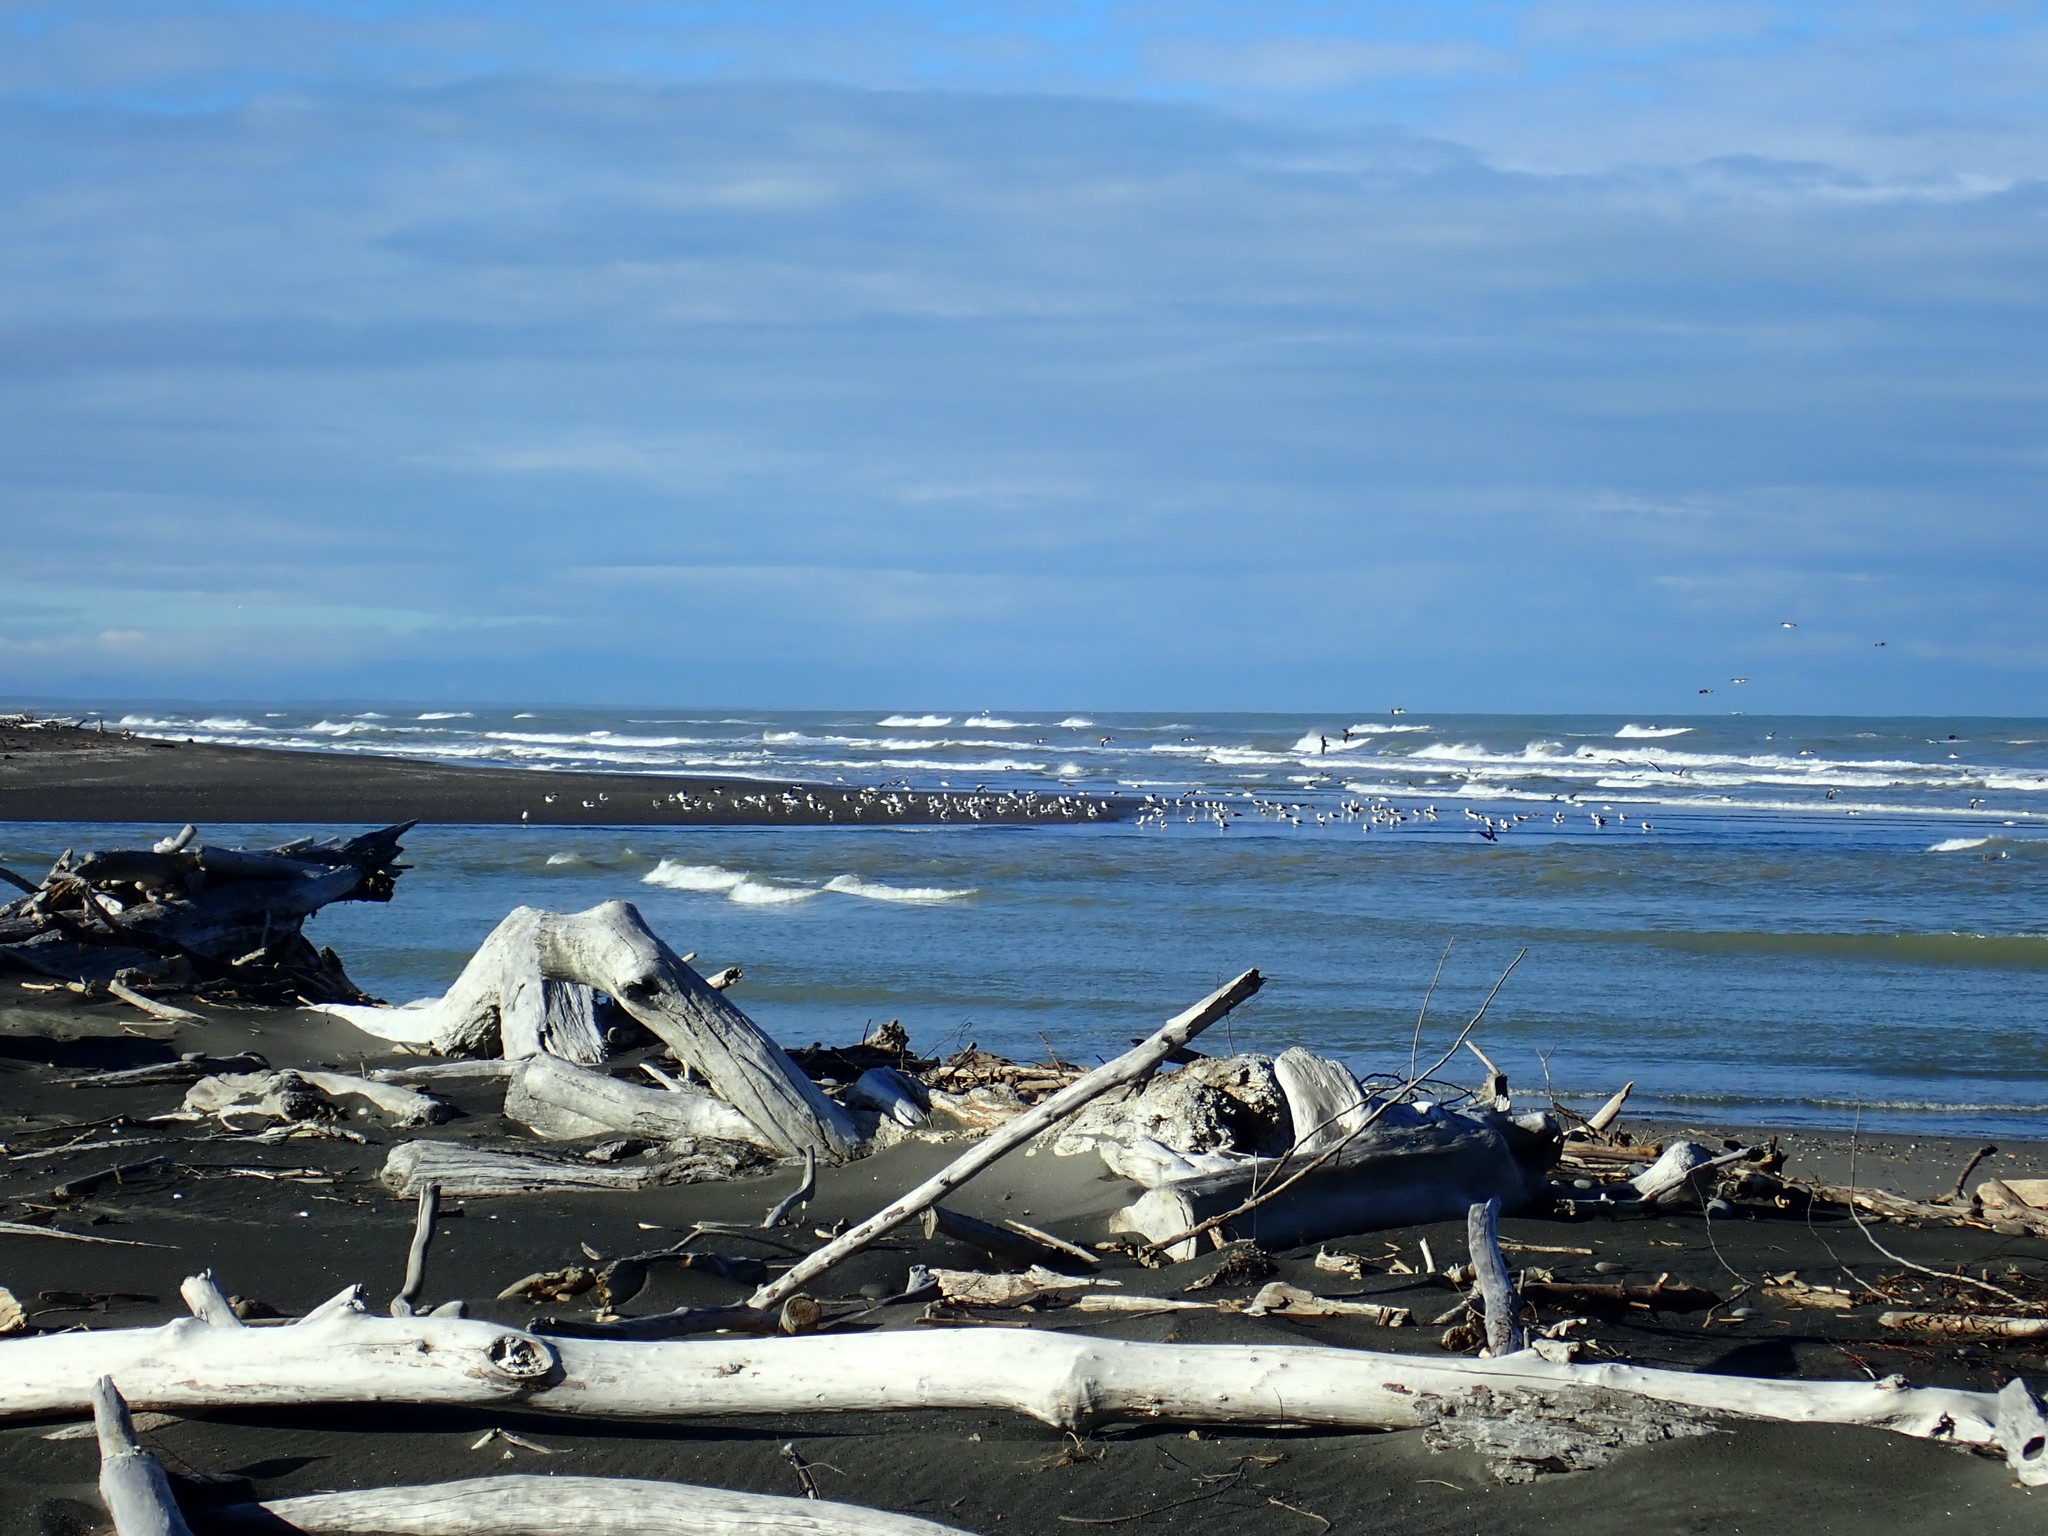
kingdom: Animalia
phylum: Chordata
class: Aves
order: Charadriiformes
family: Laridae
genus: Larus
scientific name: Larus dominicanus
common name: Kelp gull
